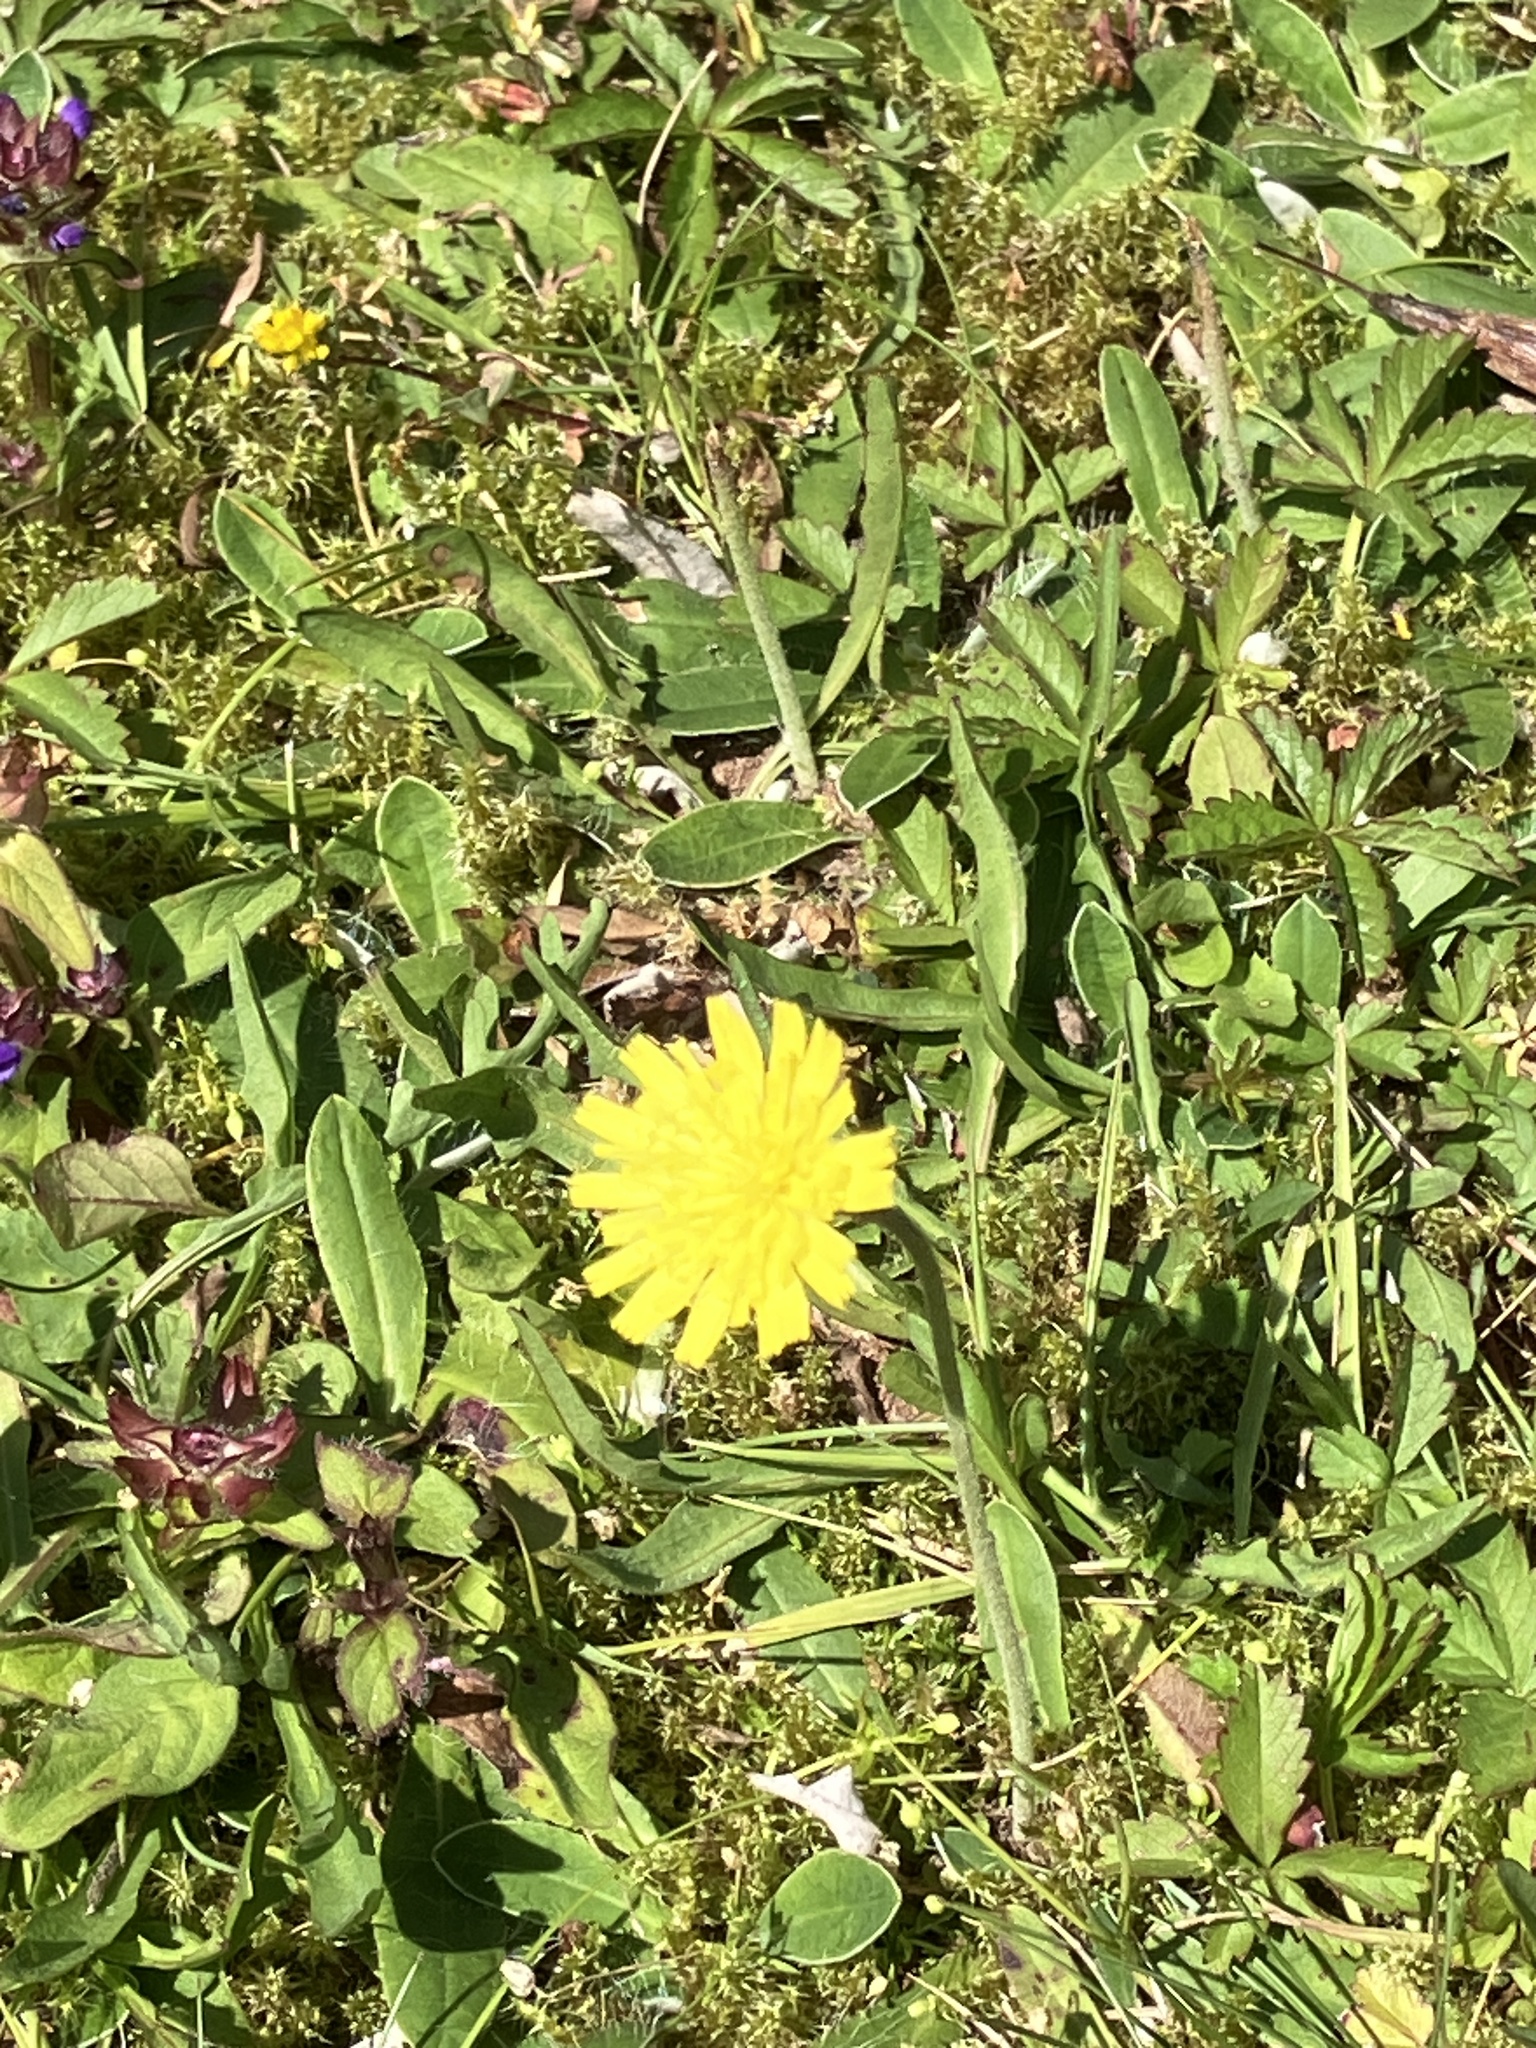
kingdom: Plantae
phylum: Tracheophyta
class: Magnoliopsida
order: Asterales
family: Asteraceae
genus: Pilosella
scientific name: Pilosella officinarum
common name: Mouse-ear hawkweed
